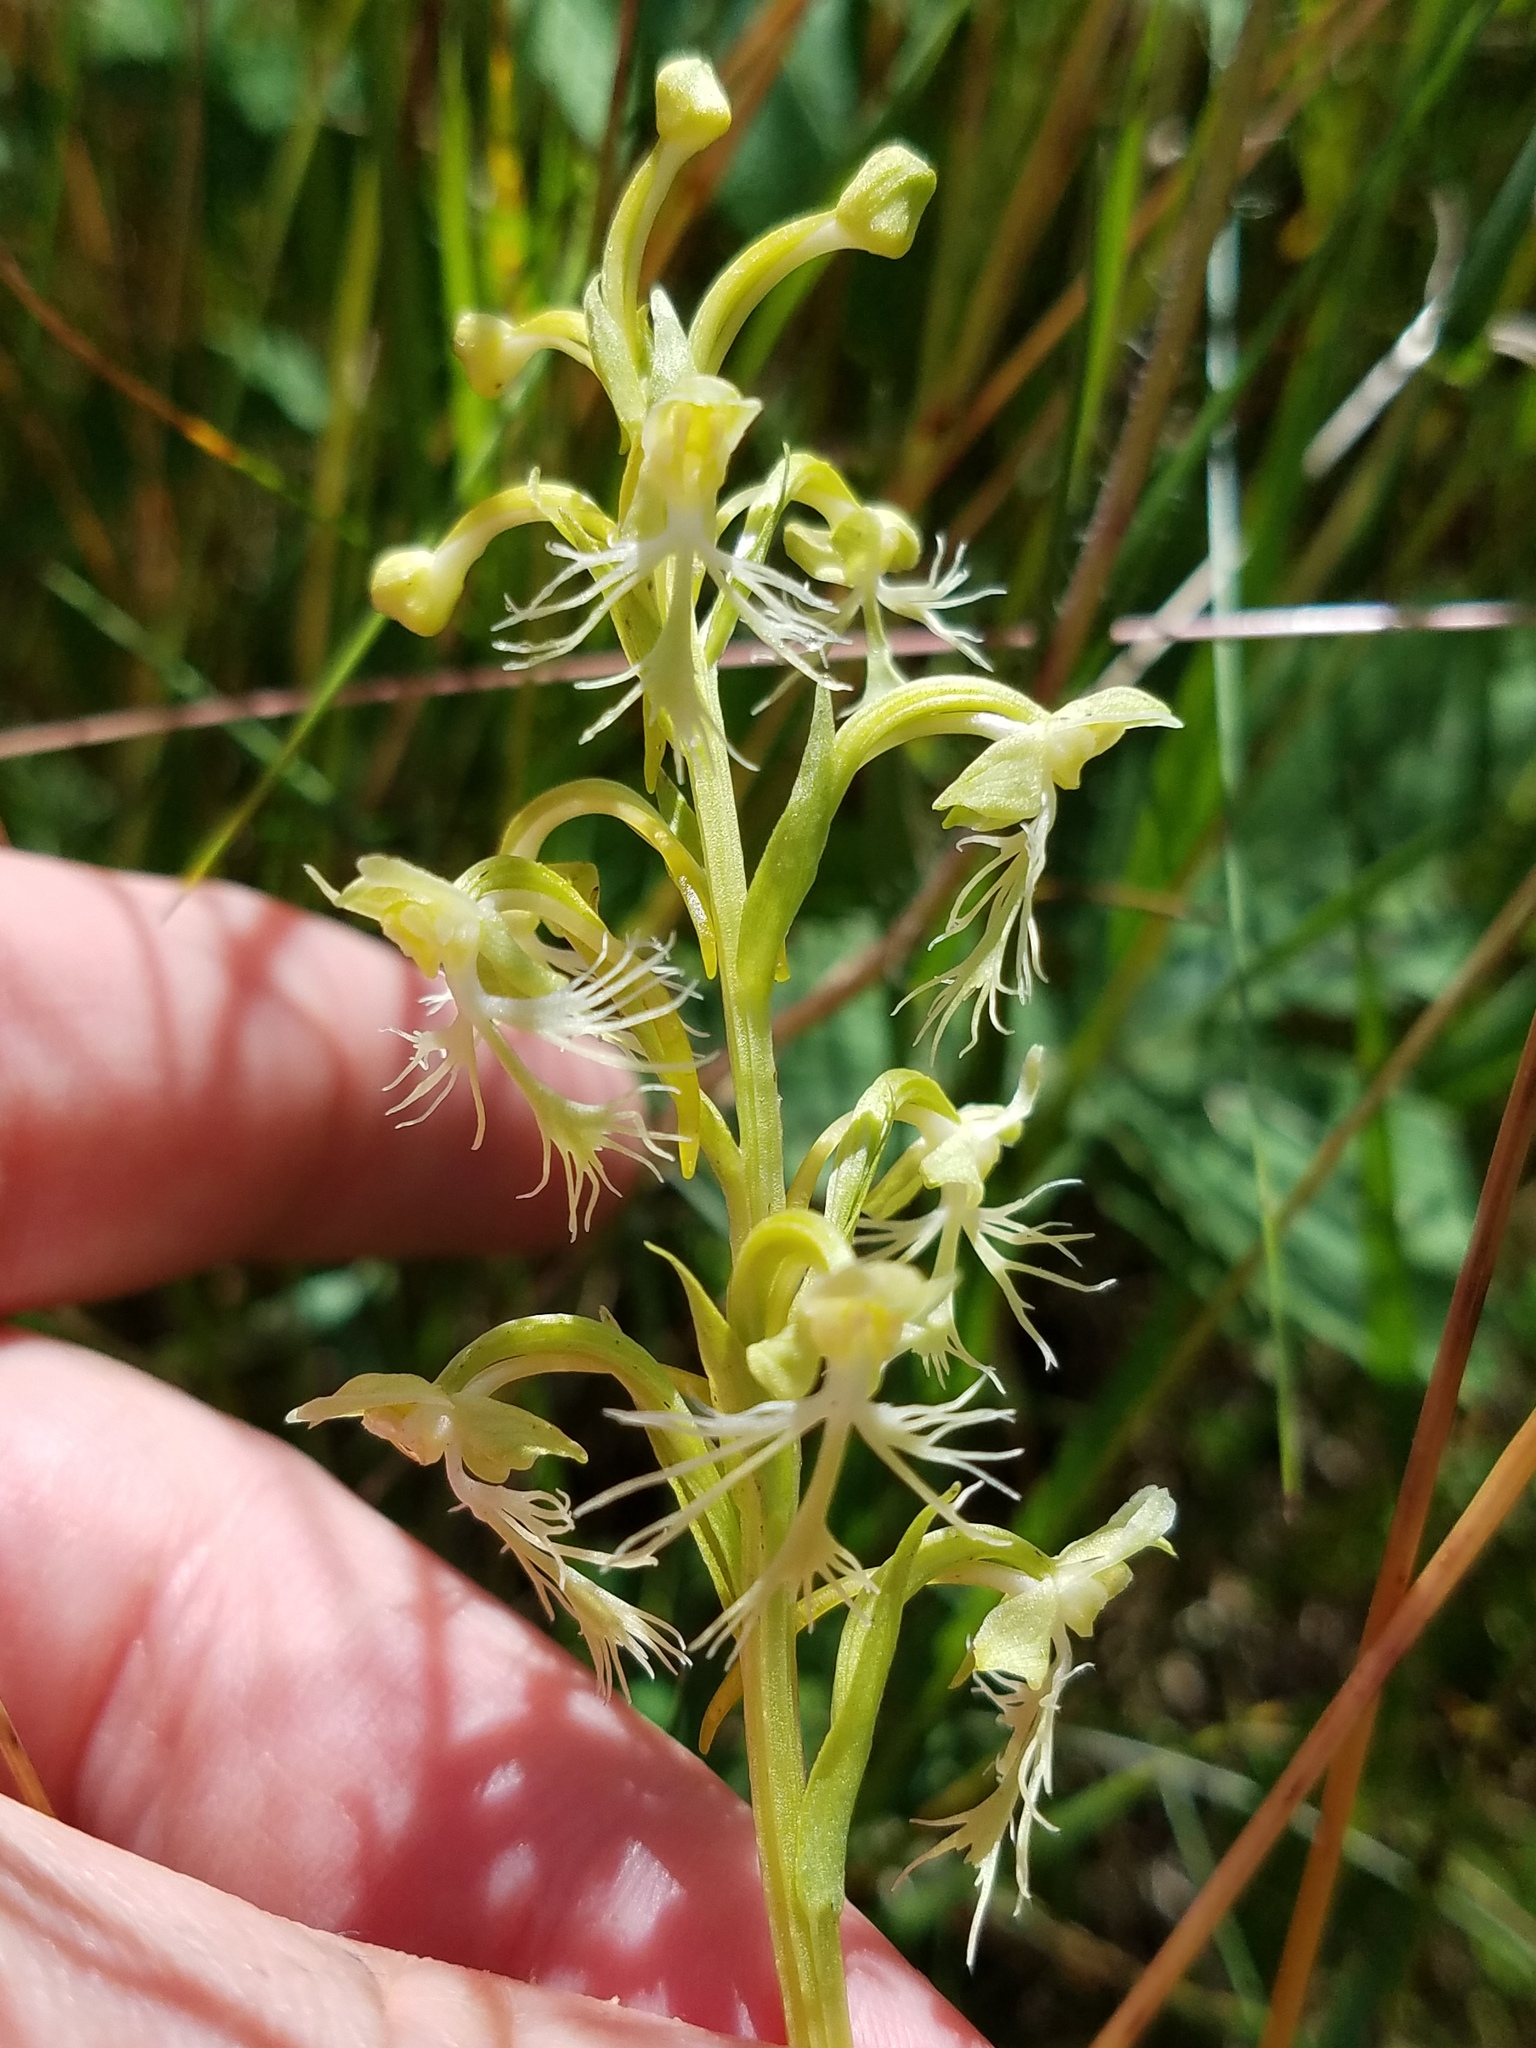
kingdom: Plantae
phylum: Tracheophyta
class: Liliopsida
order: Asparagales
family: Orchidaceae
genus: Platanthera
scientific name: Platanthera lacera
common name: Green fringed orchid
